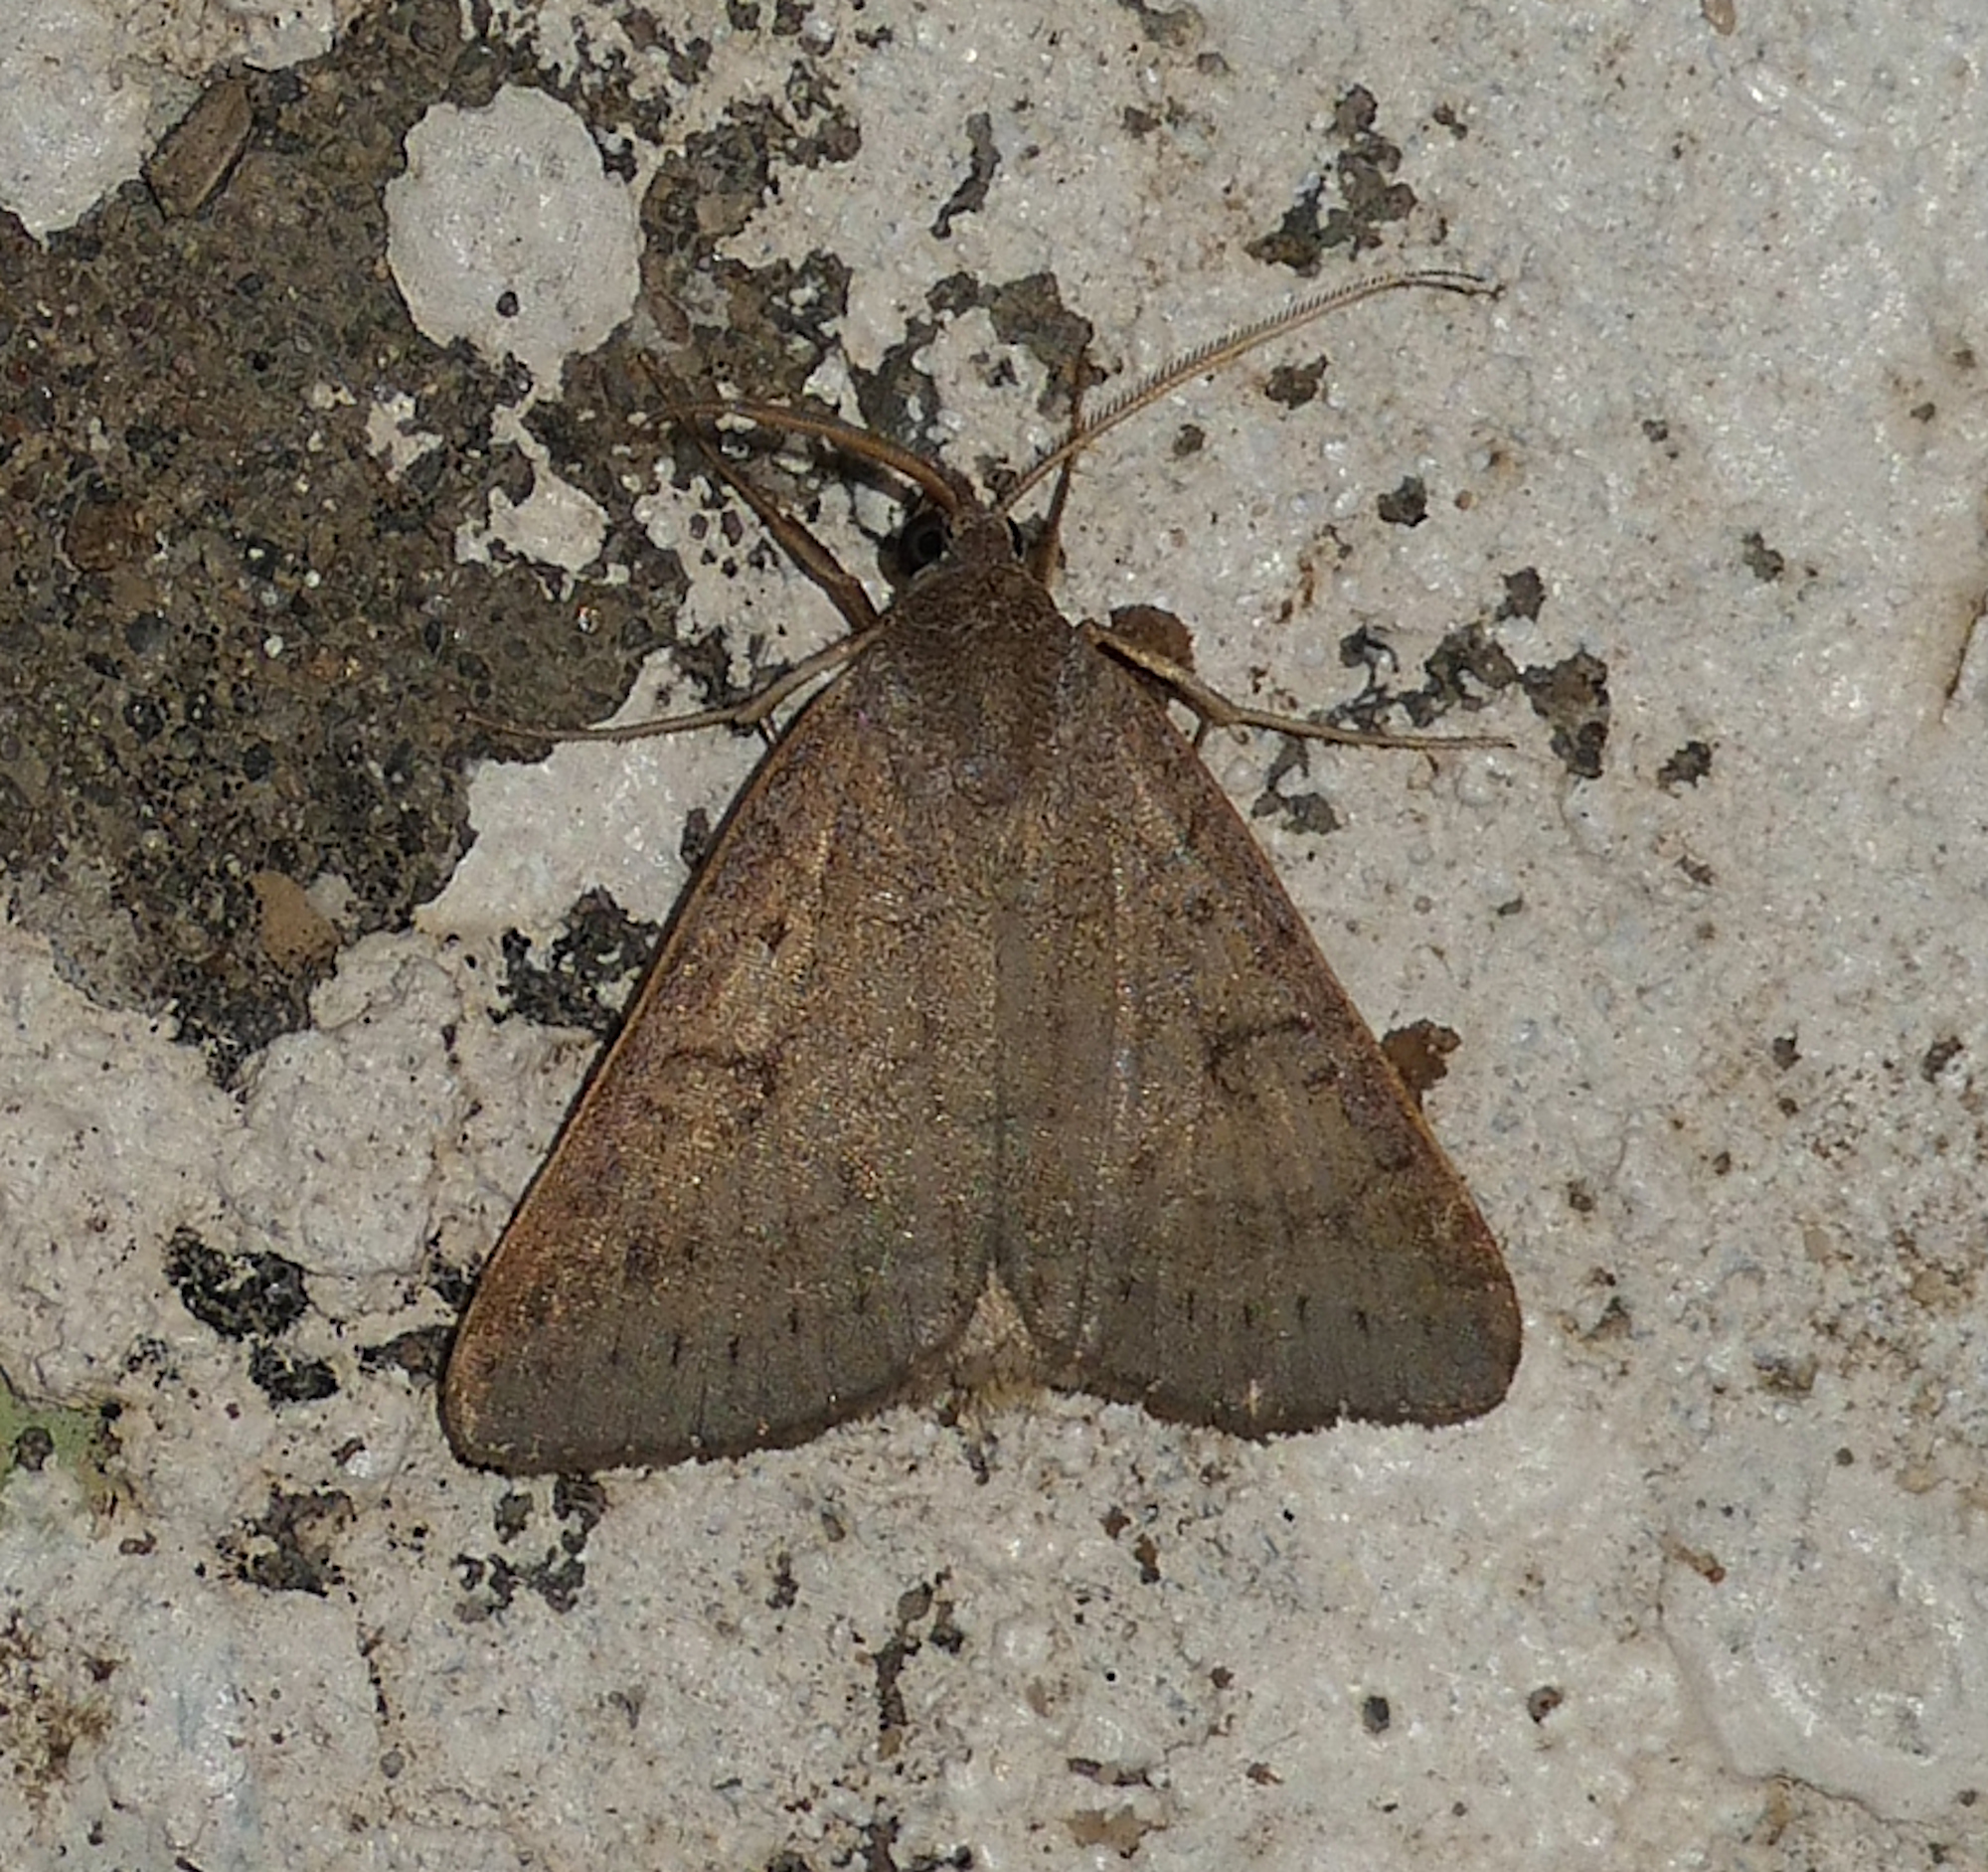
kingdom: Animalia
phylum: Arthropoda
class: Insecta
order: Lepidoptera
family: Erebidae
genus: Caenurgia
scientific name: Caenurgia chloropha
